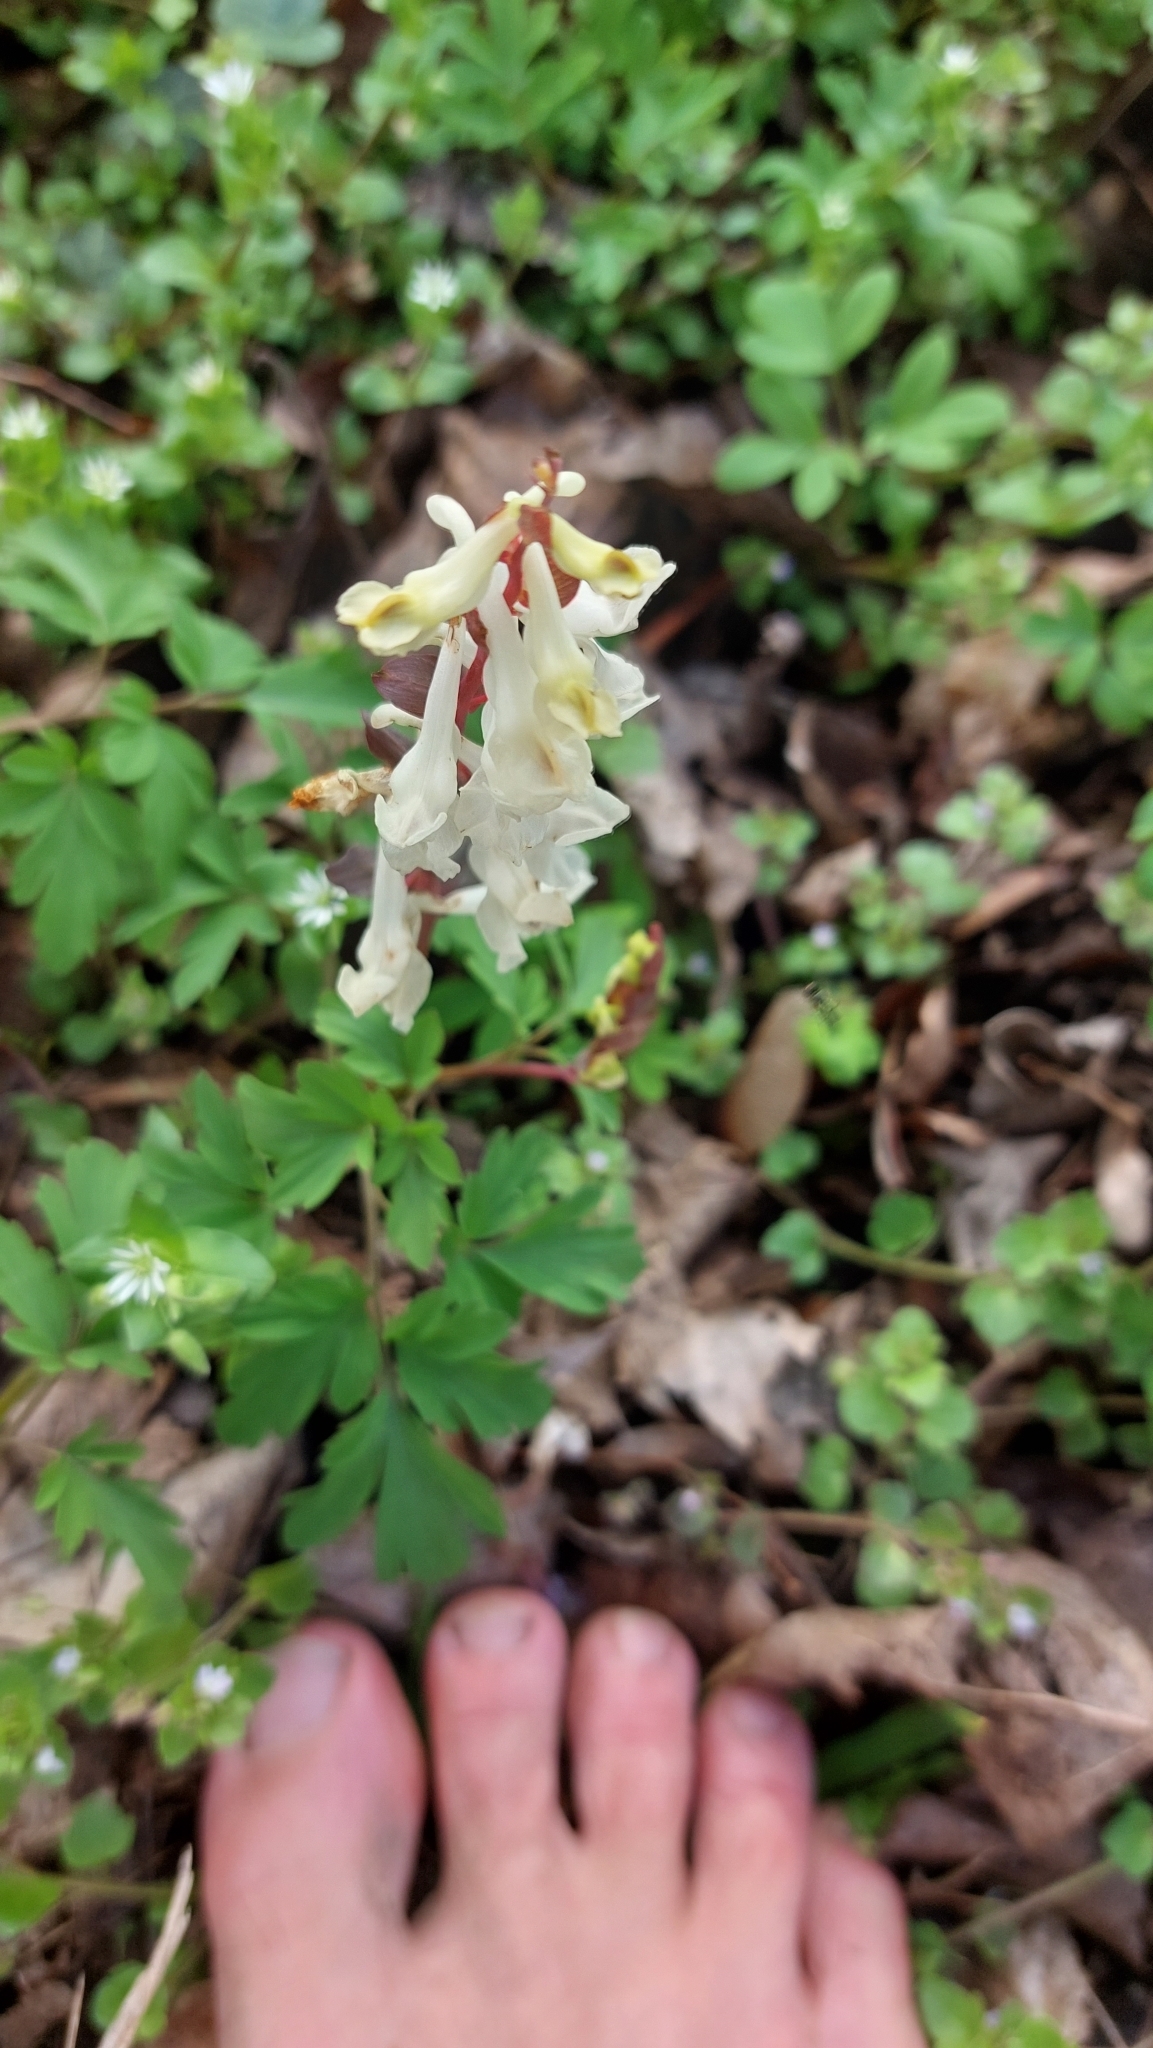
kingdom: Plantae
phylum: Tracheophyta
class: Magnoliopsida
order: Ranunculales
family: Papaveraceae
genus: Corydalis
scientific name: Corydalis cava
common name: Hollowroot
